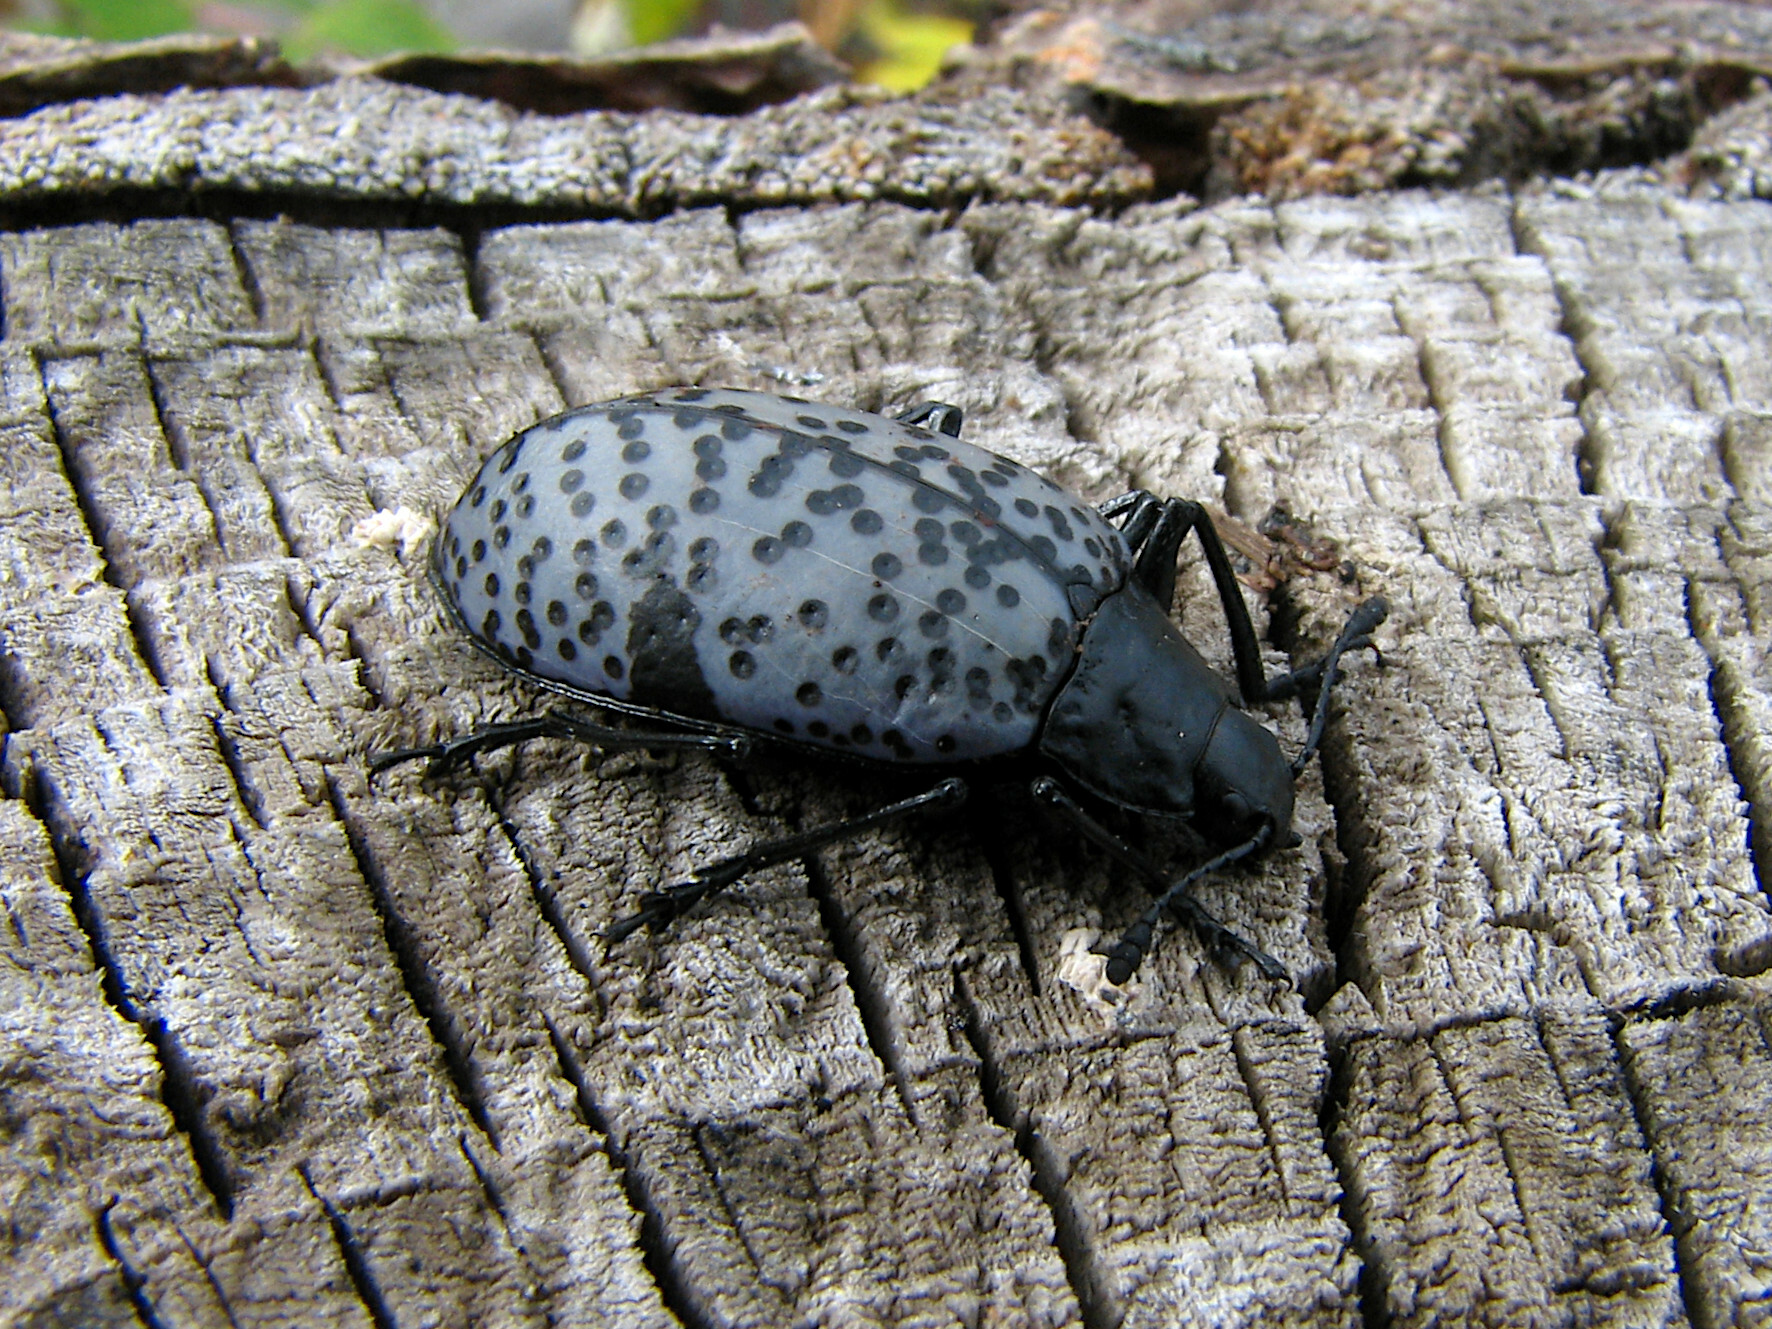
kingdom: Animalia
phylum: Arthropoda
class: Insecta
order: Coleoptera
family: Erotylidae
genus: Gibbifer
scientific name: Gibbifer californicus
